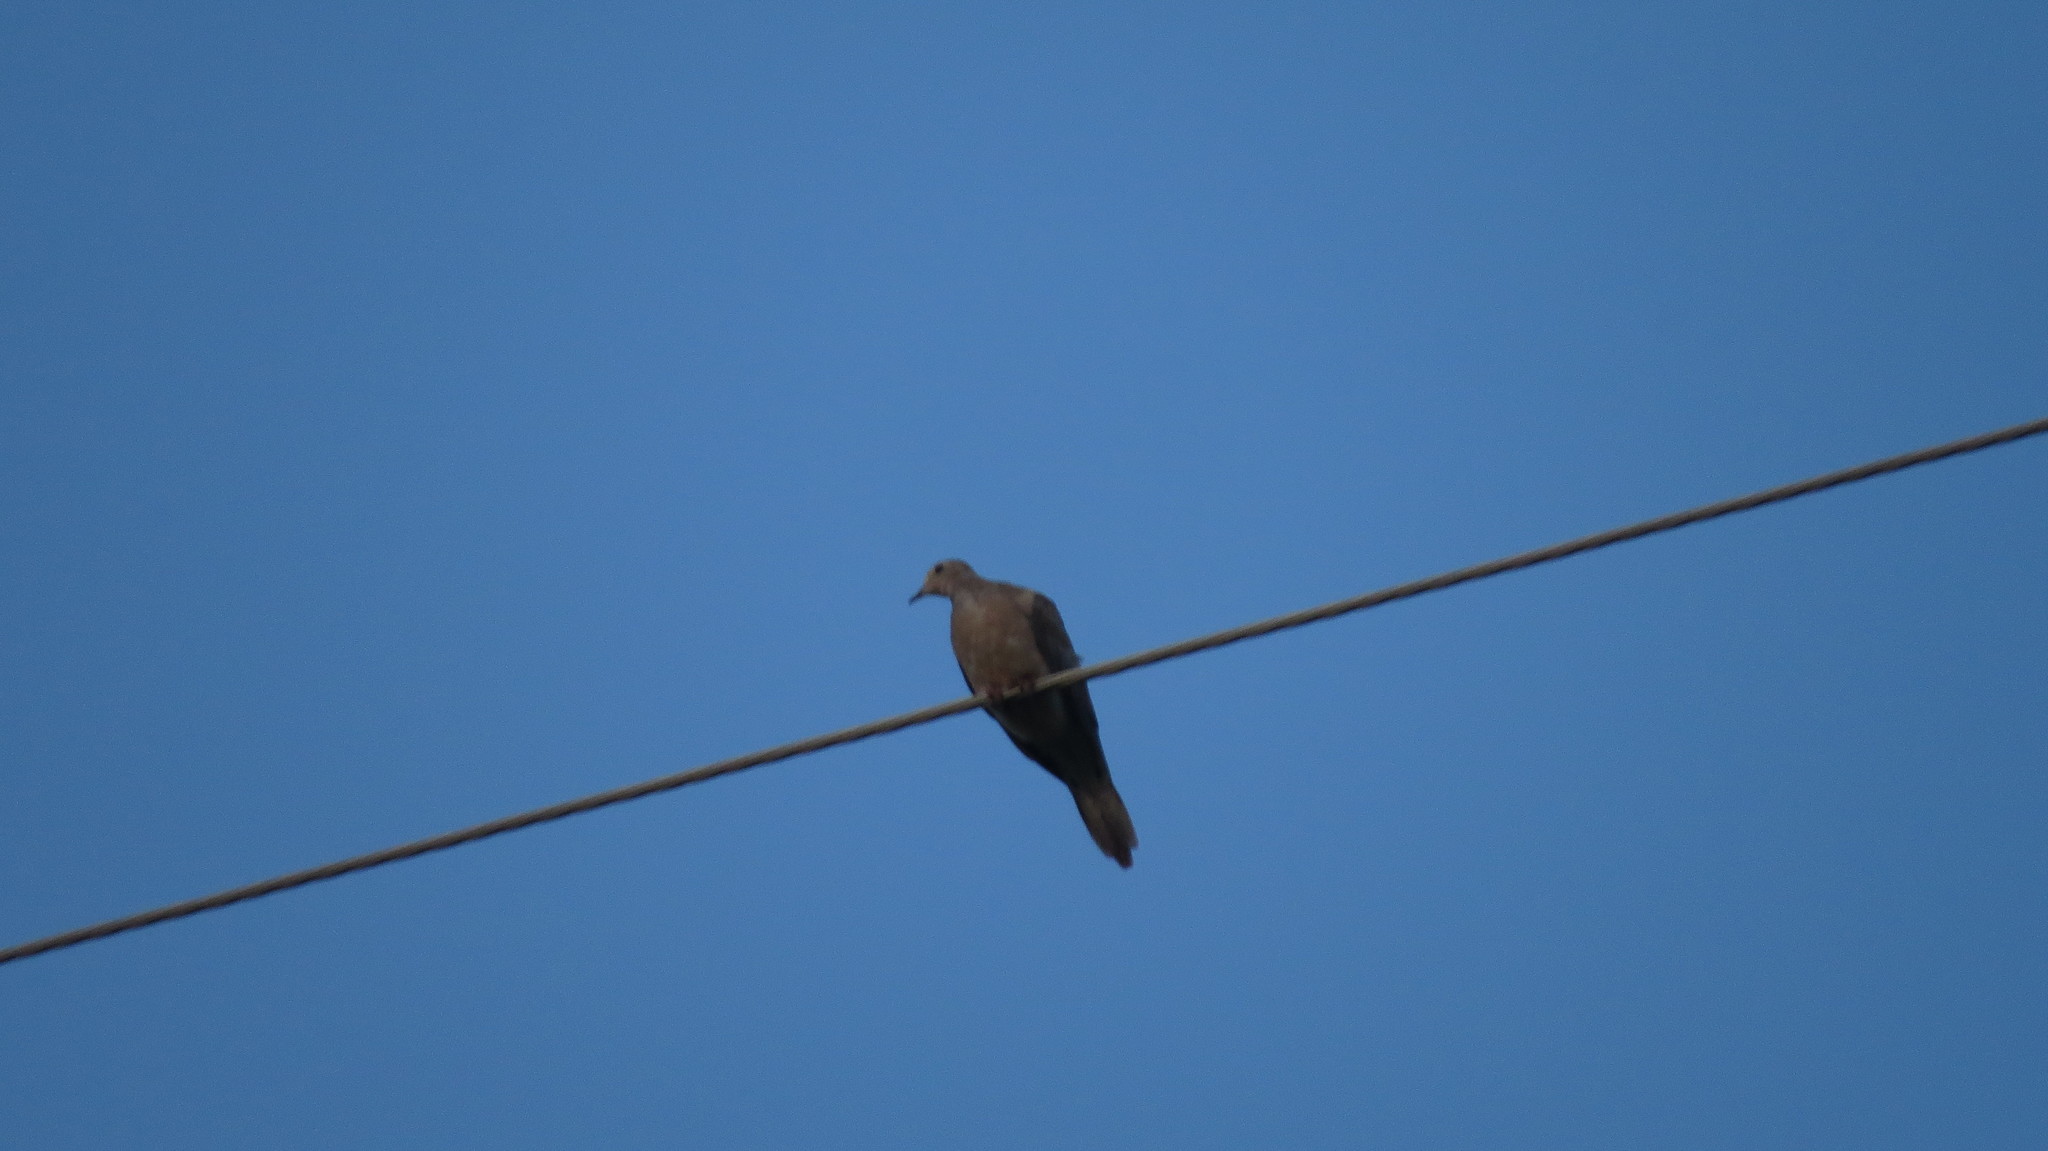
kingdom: Animalia
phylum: Chordata
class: Aves
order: Columbiformes
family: Columbidae
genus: Zenaida
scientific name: Zenaida macroura
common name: Mourning dove
